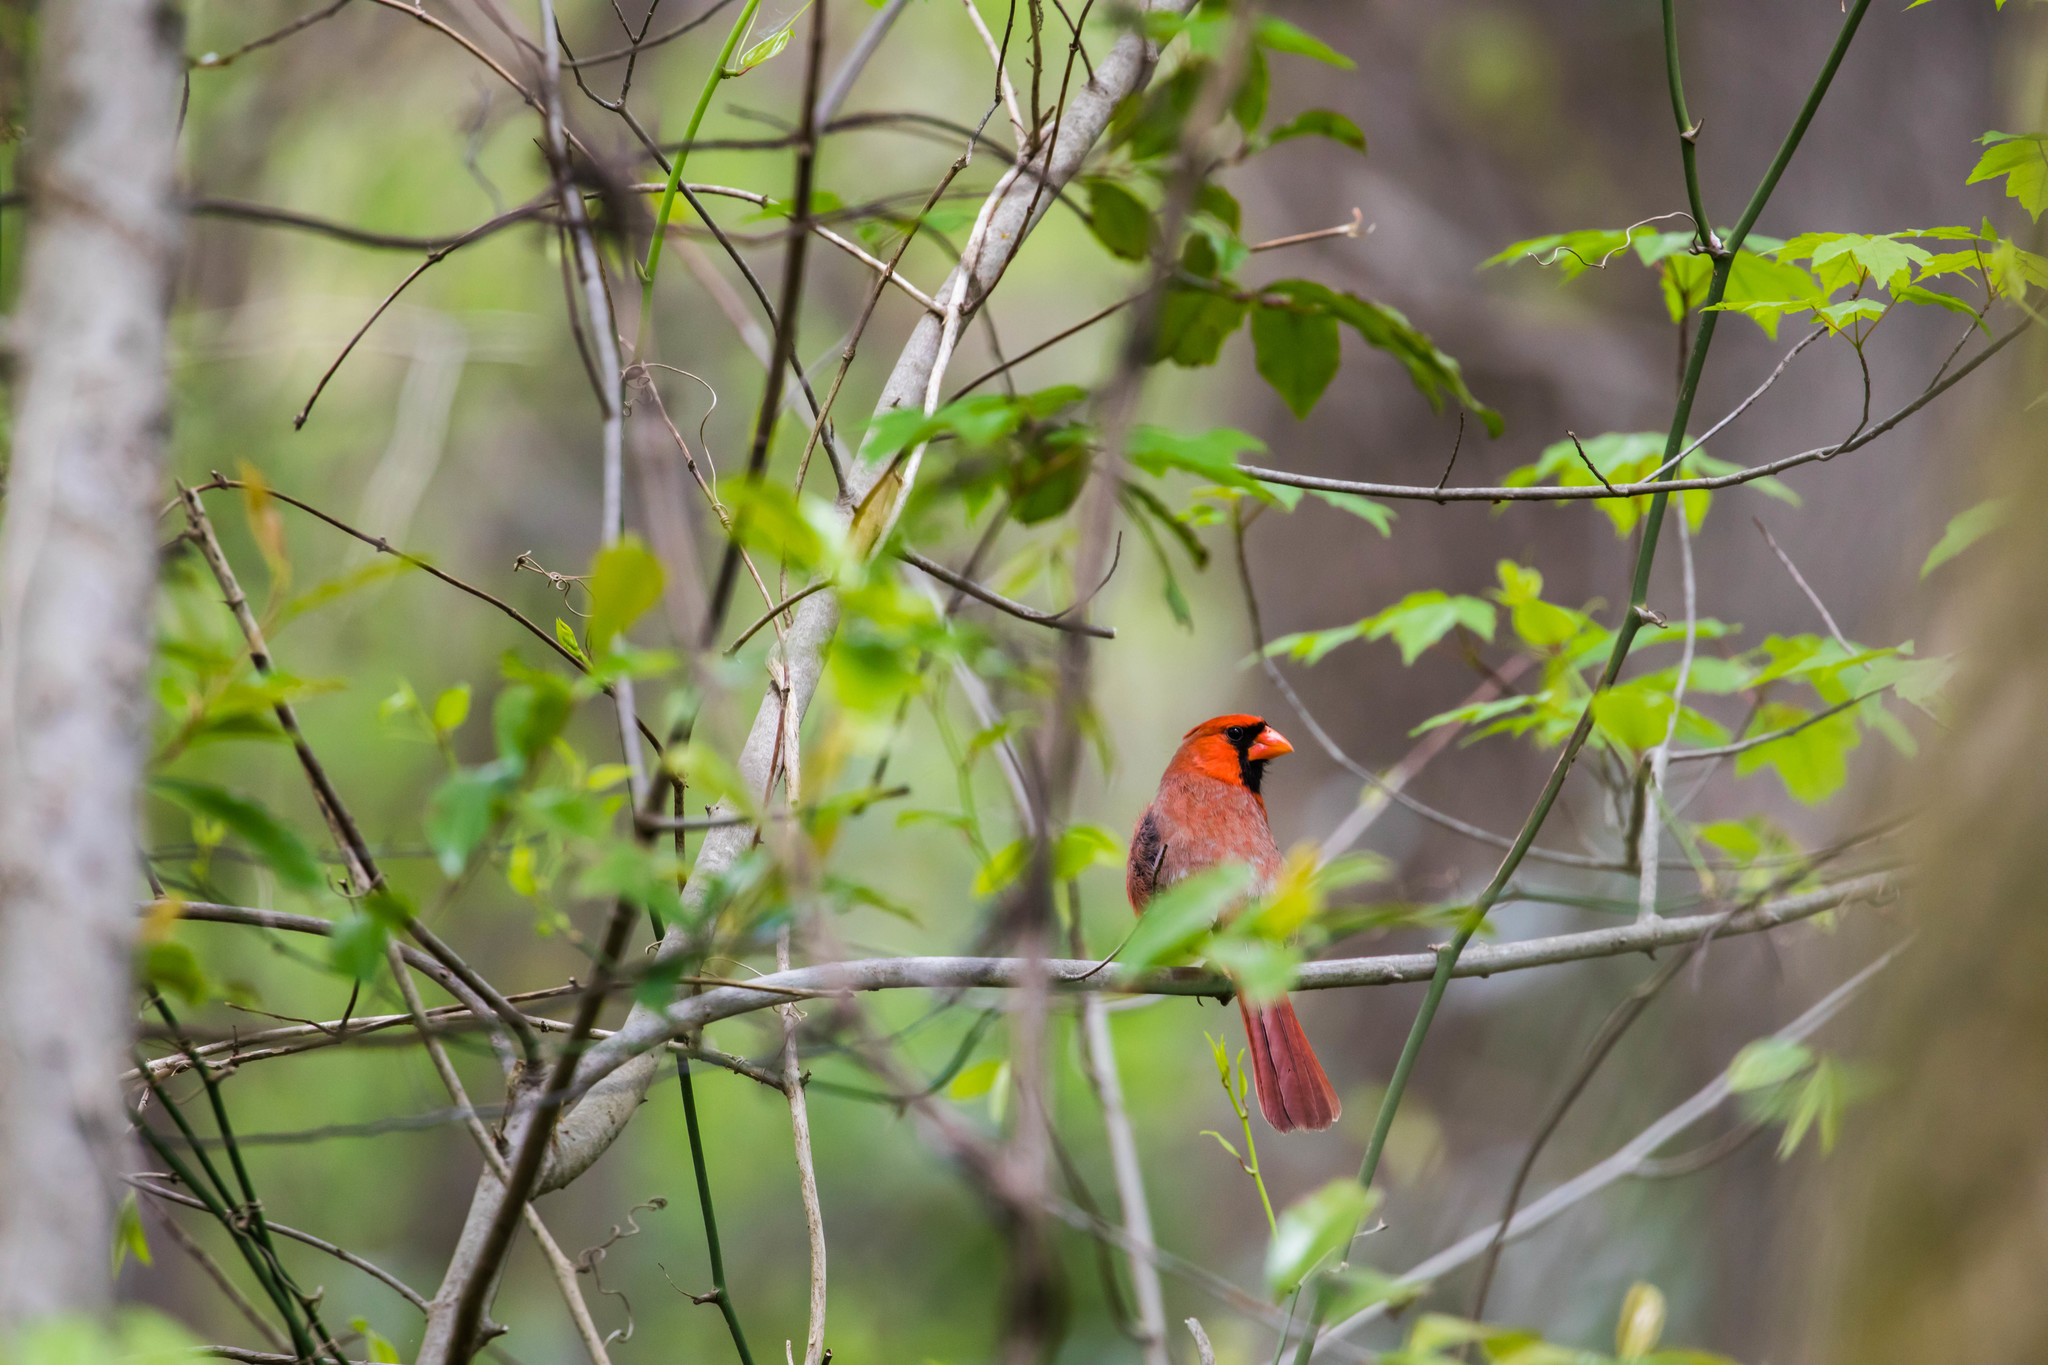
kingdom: Animalia
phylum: Chordata
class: Aves
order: Passeriformes
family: Cardinalidae
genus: Cardinalis
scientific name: Cardinalis cardinalis
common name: Northern cardinal
